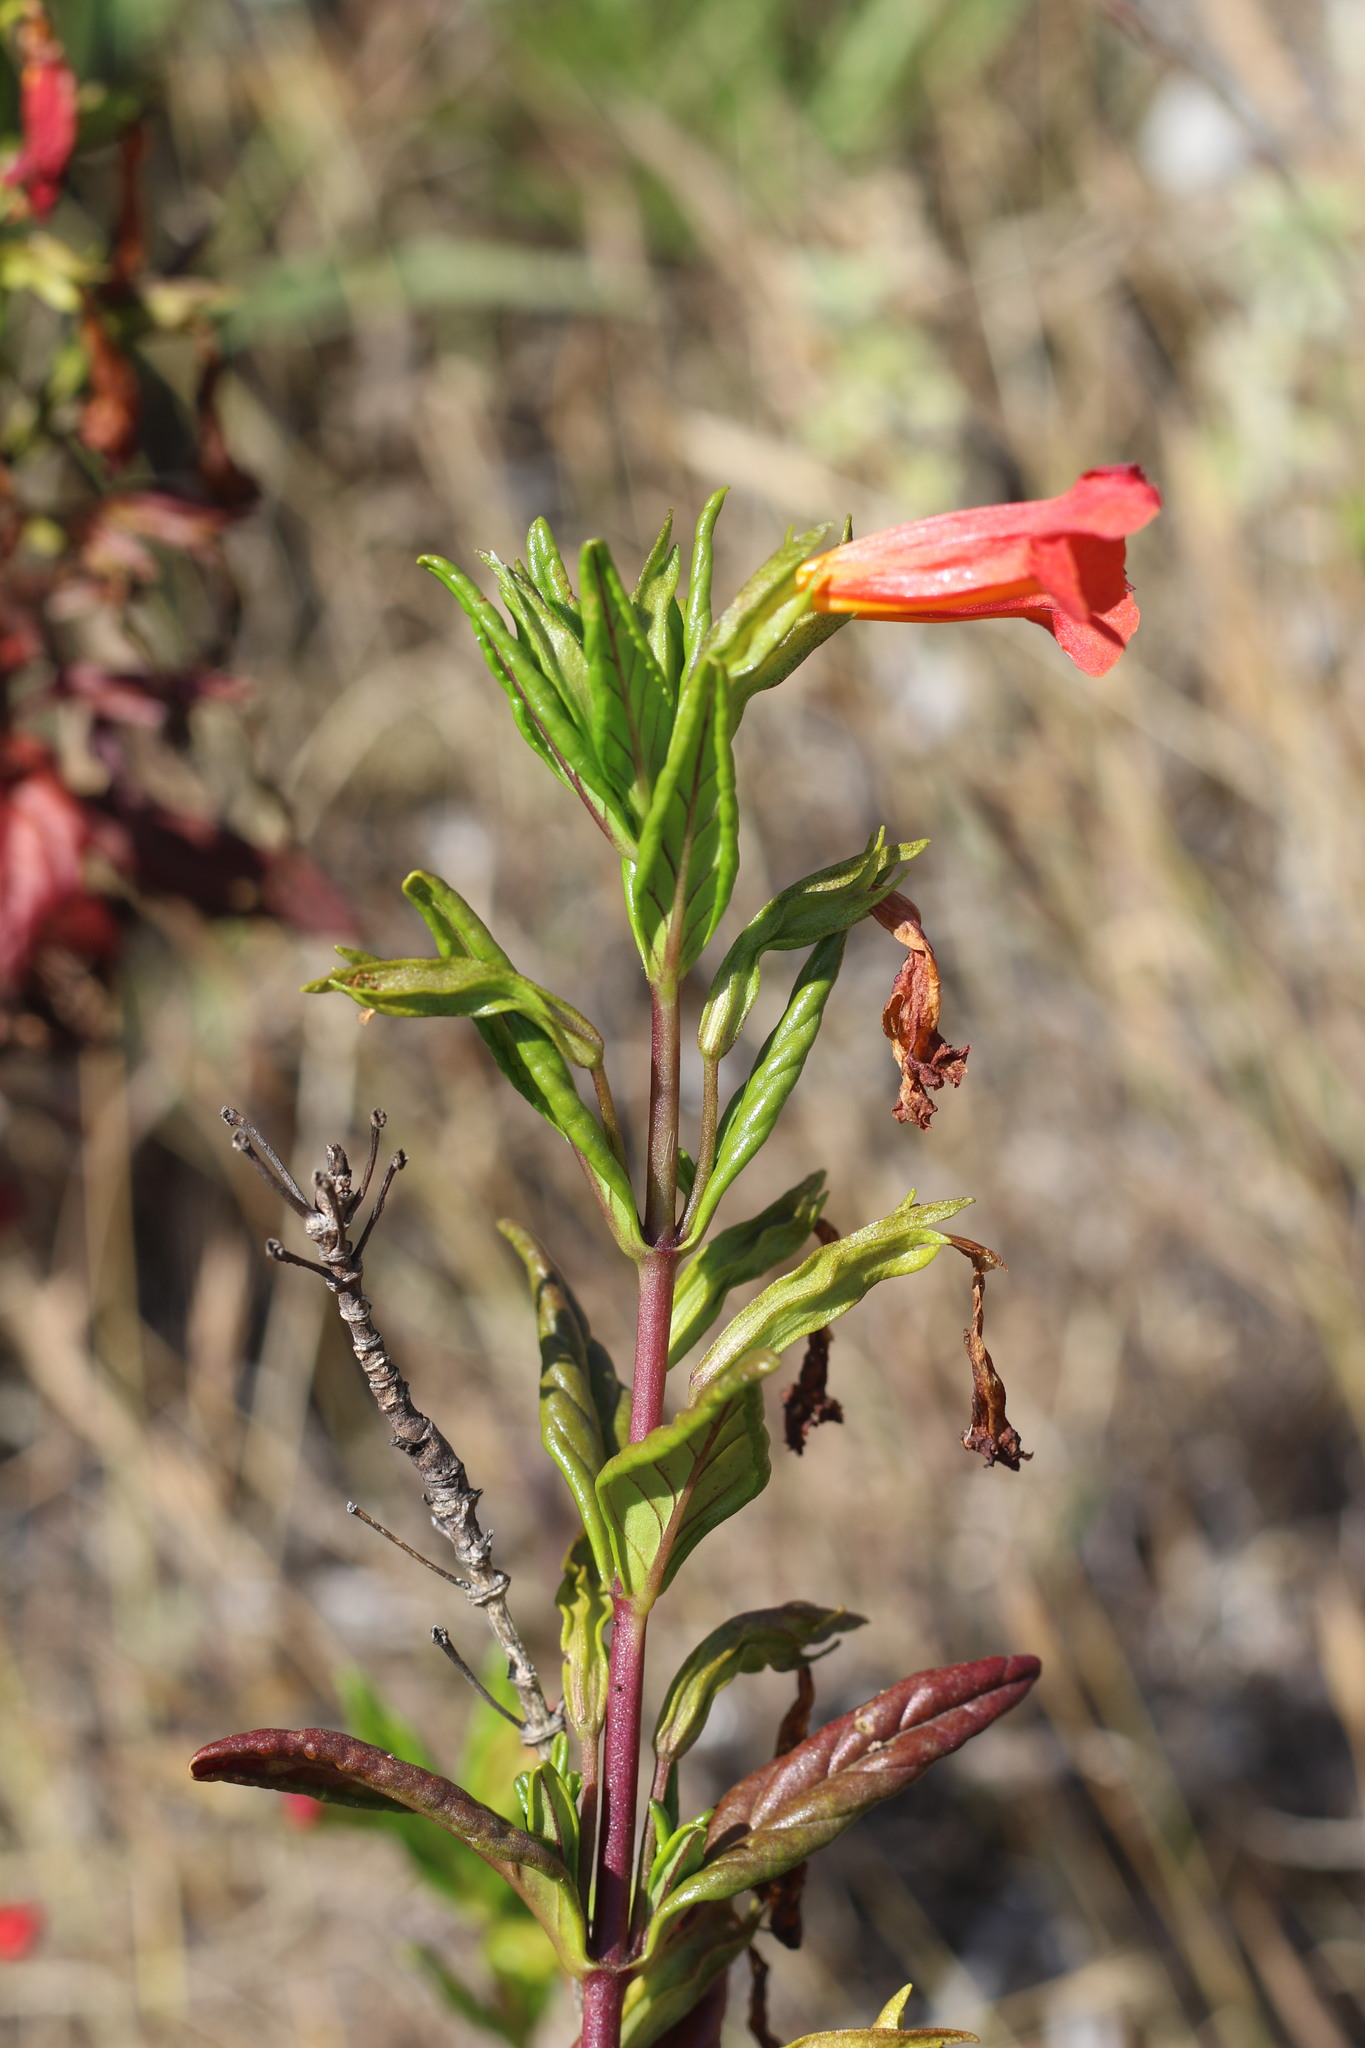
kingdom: Plantae
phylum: Tracheophyta
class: Magnoliopsida
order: Lamiales
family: Phrymaceae
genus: Diplacus
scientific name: Diplacus parviflorus
